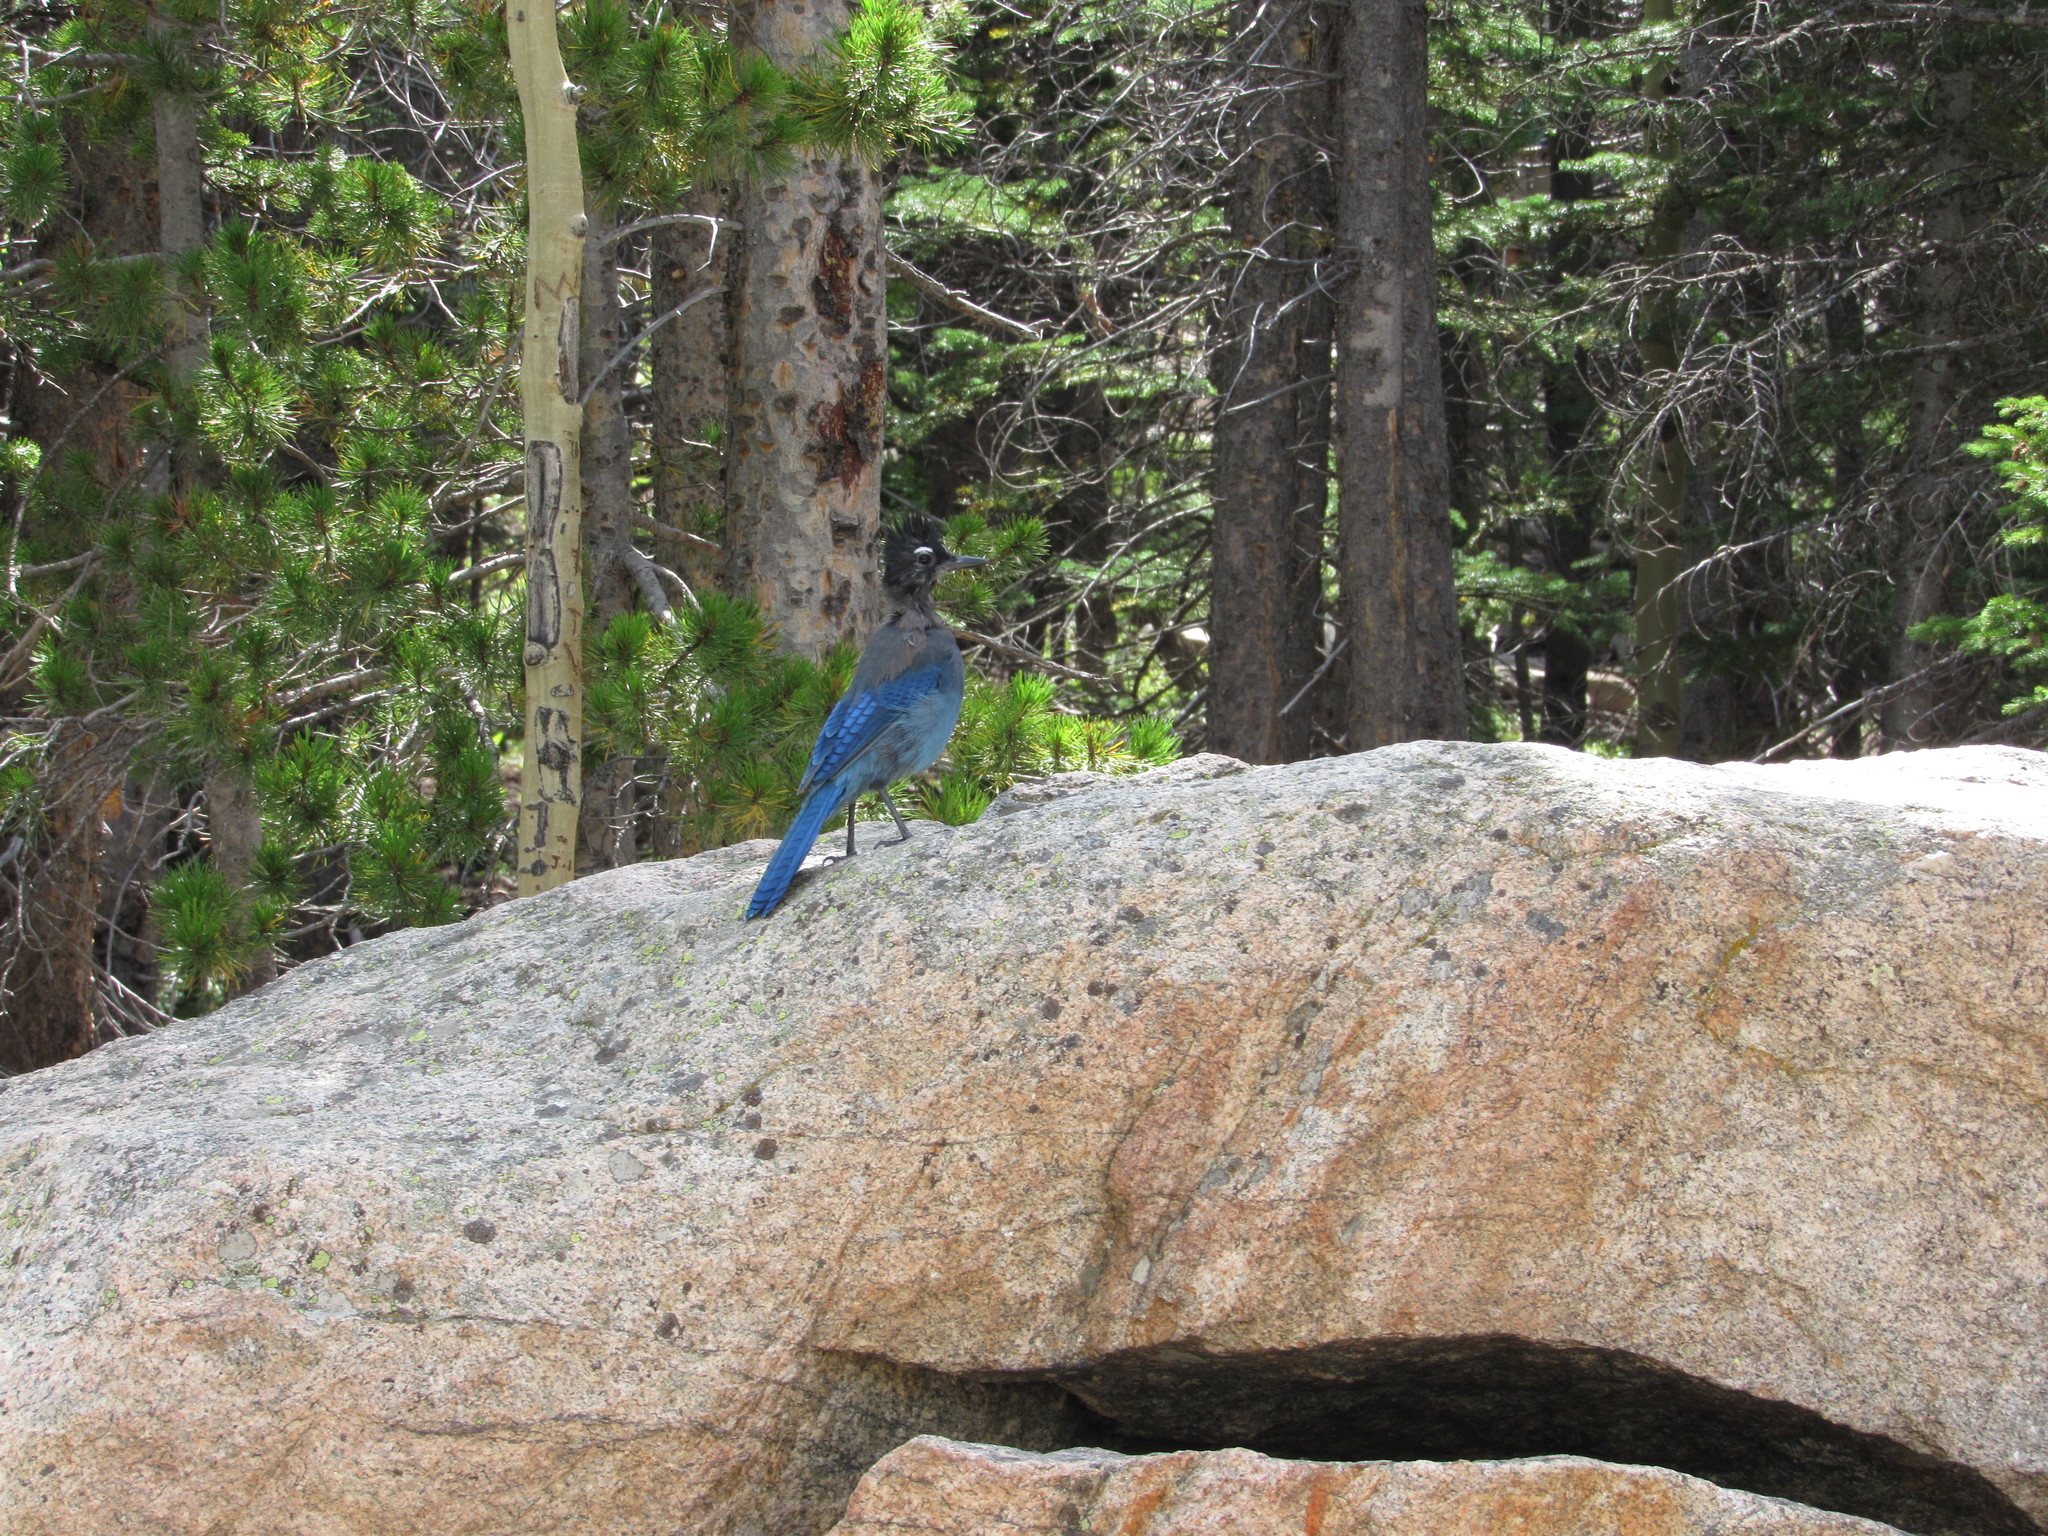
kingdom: Animalia
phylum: Chordata
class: Aves
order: Passeriformes
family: Corvidae
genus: Cyanocitta
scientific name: Cyanocitta stelleri
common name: Steller's jay
